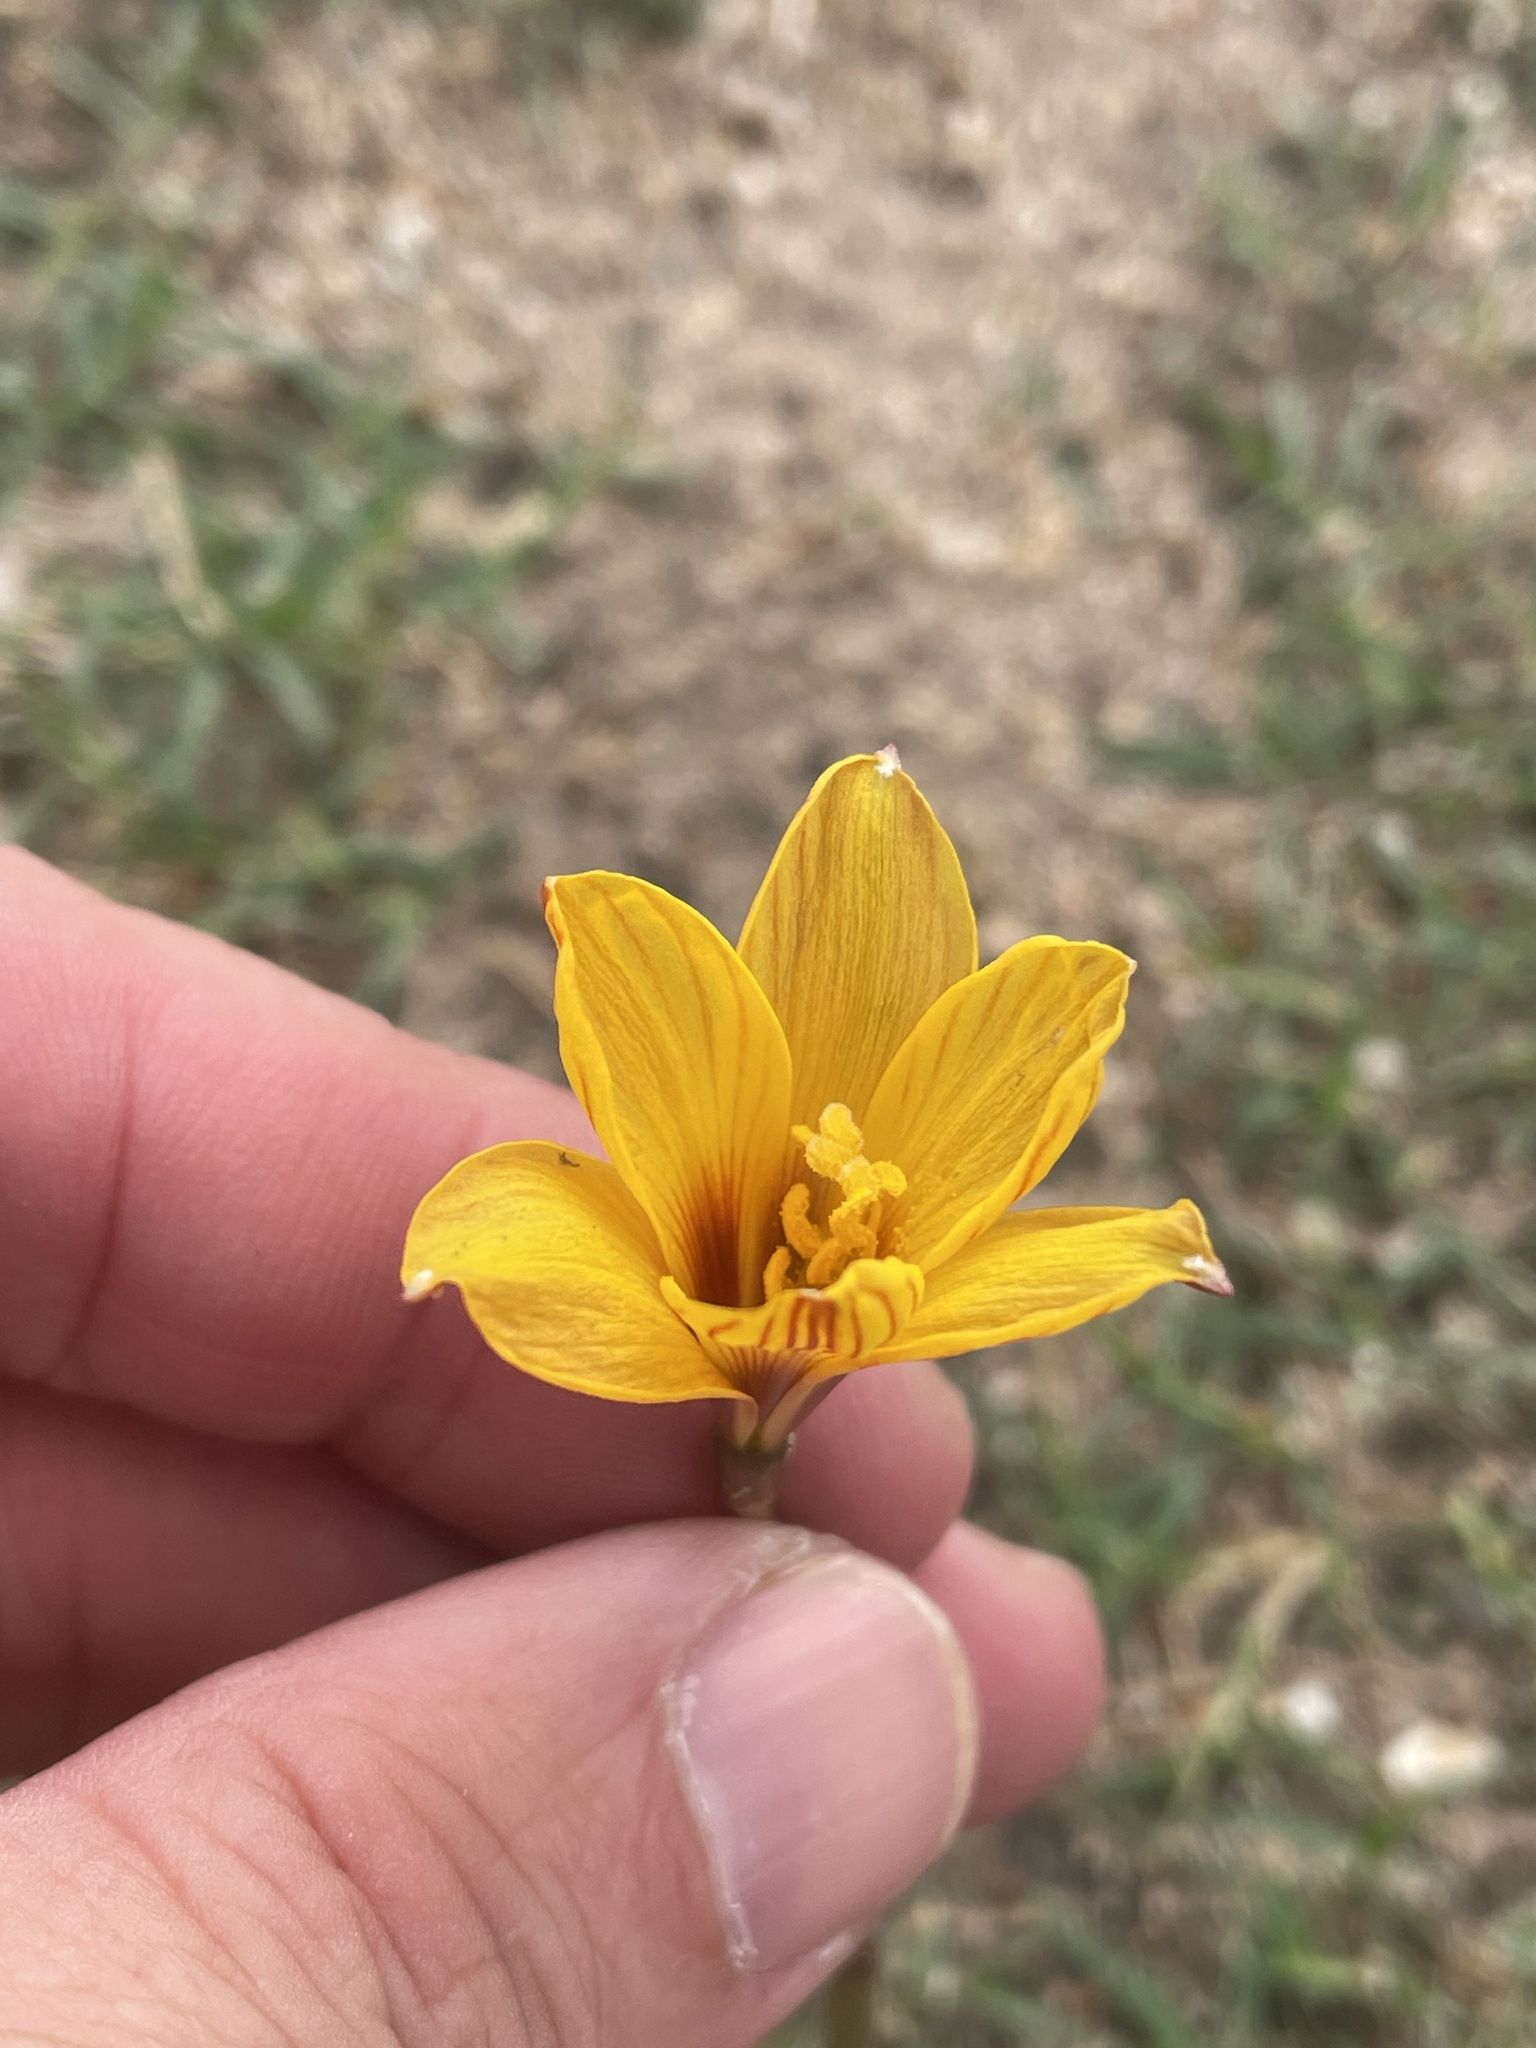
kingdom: Plantae
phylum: Tracheophyta
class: Liliopsida
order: Asparagales
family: Amaryllidaceae
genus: Zephyranthes
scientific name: Zephyranthes tubispatha
